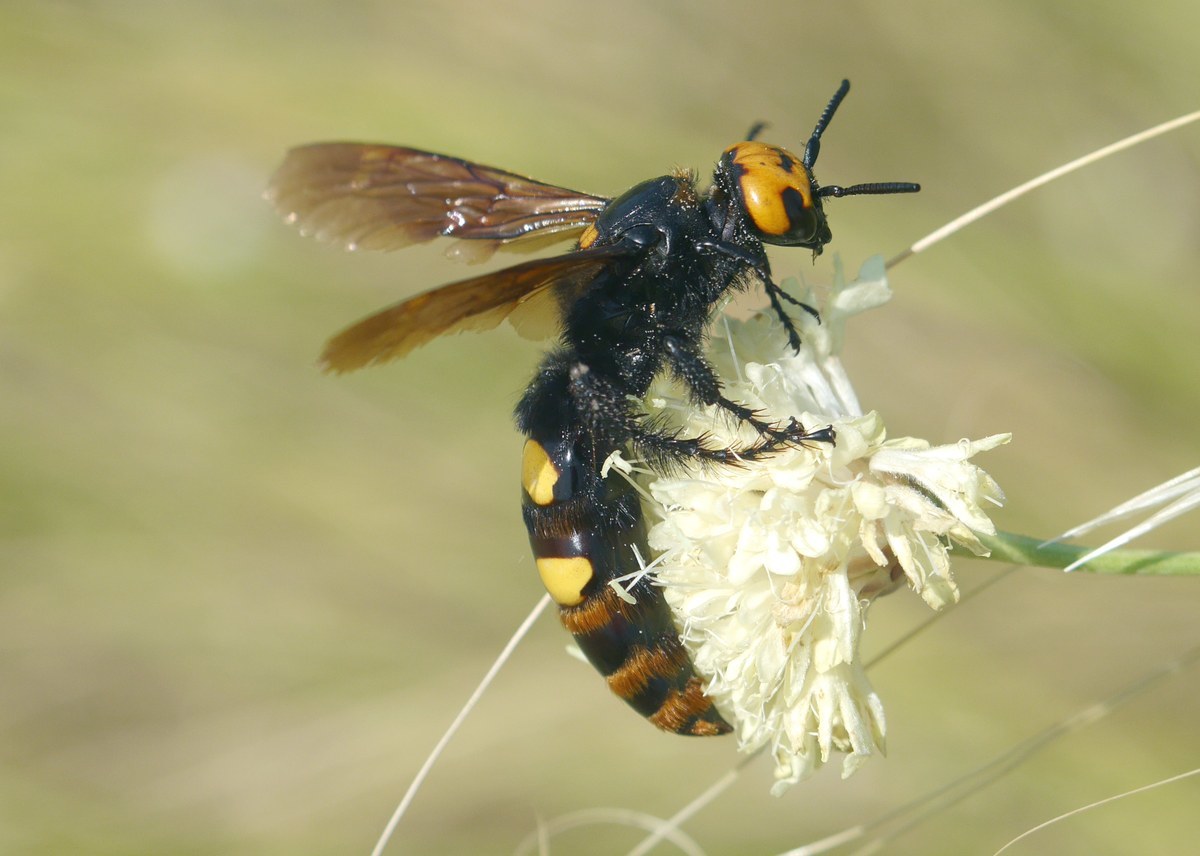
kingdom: Animalia
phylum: Arthropoda
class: Insecta
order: Hymenoptera
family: Scoliidae
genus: Megascolia
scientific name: Megascolia maculata
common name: Mammoth wasp
